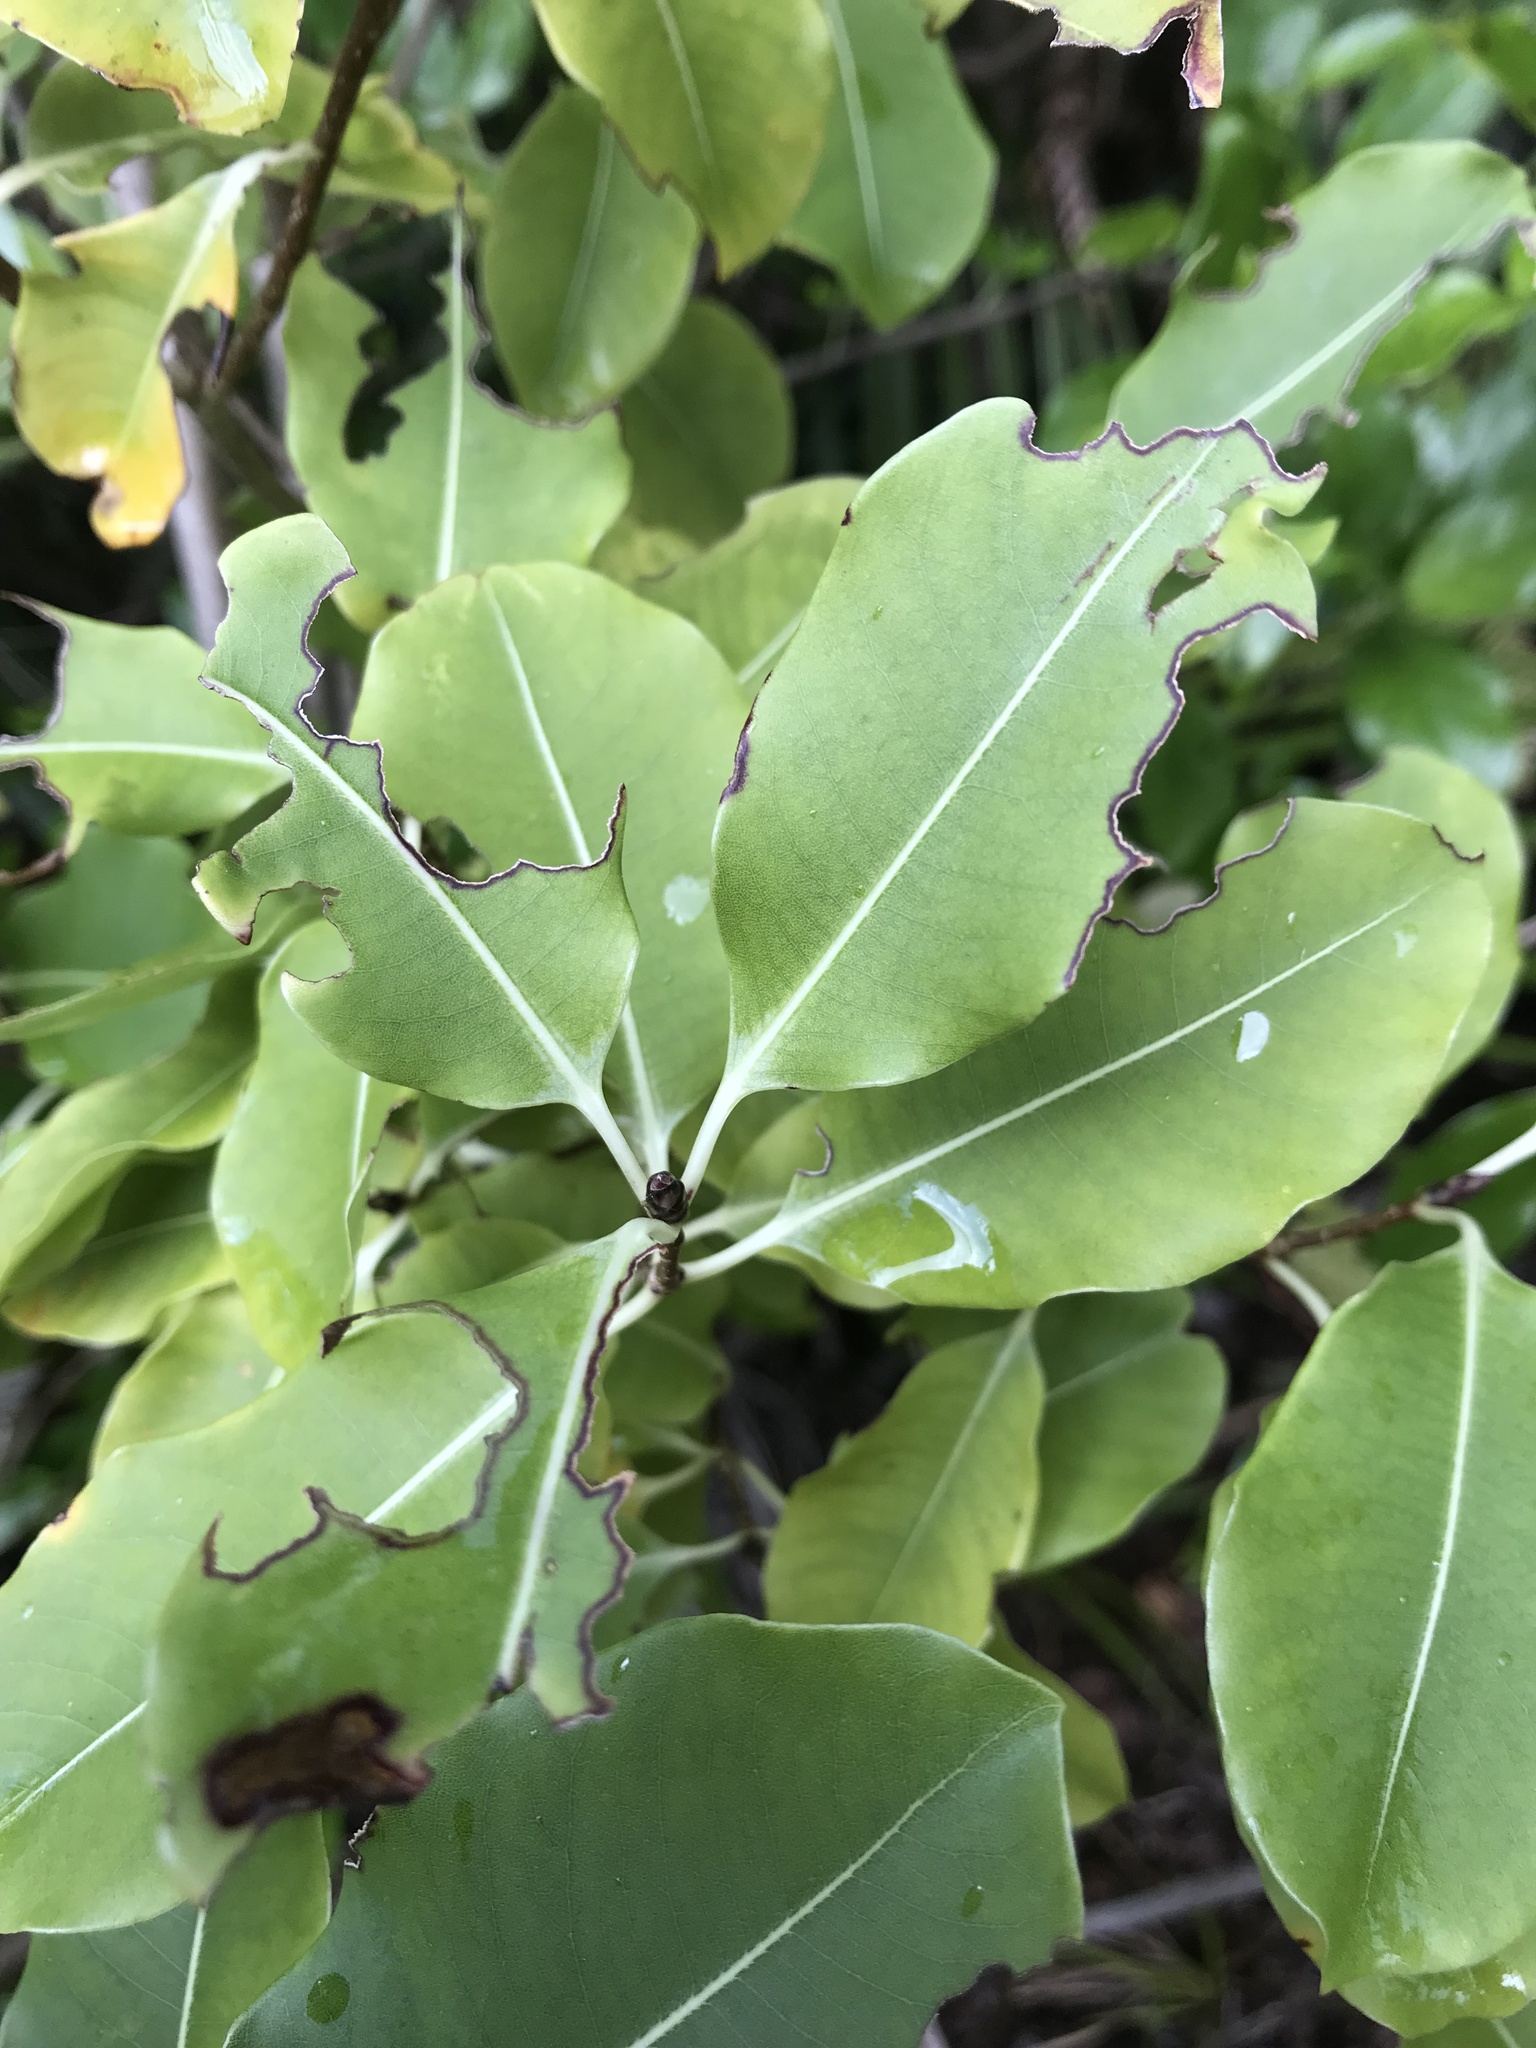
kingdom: Plantae
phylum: Tracheophyta
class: Magnoliopsida
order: Apiales
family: Pittosporaceae
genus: Pittosporum
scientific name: Pittosporum eugenioides
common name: Lemonwood
